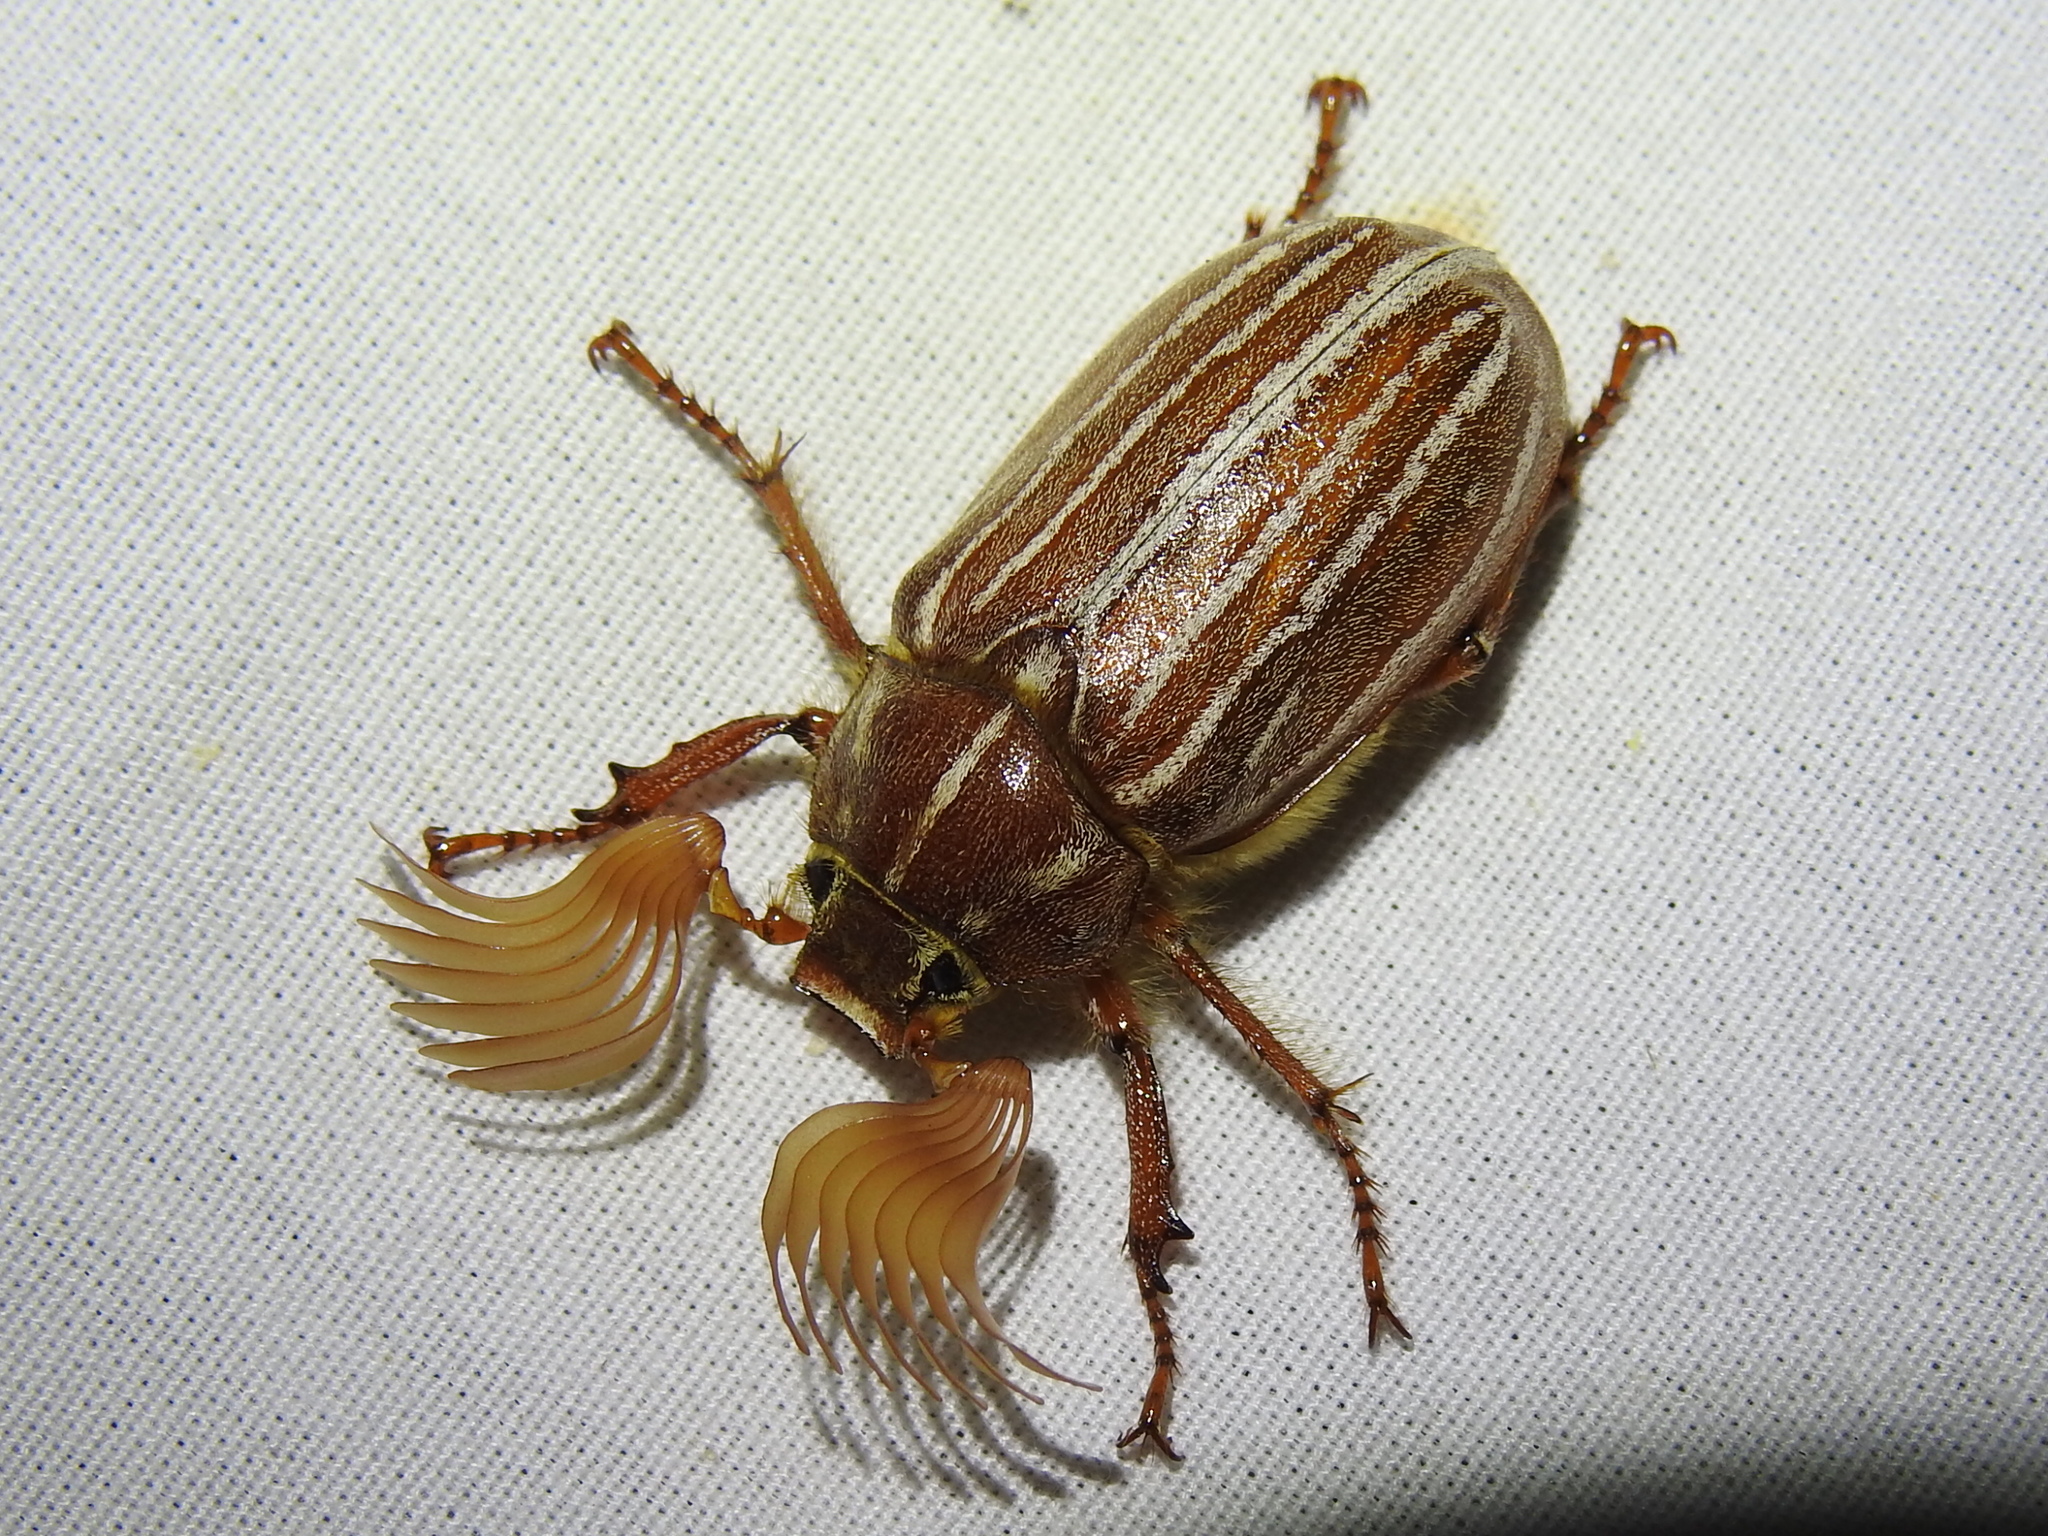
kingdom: Animalia
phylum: Arthropoda
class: Insecta
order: Coleoptera
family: Scarabaeidae
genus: Polyphylla
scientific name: Polyphylla monahansensis
